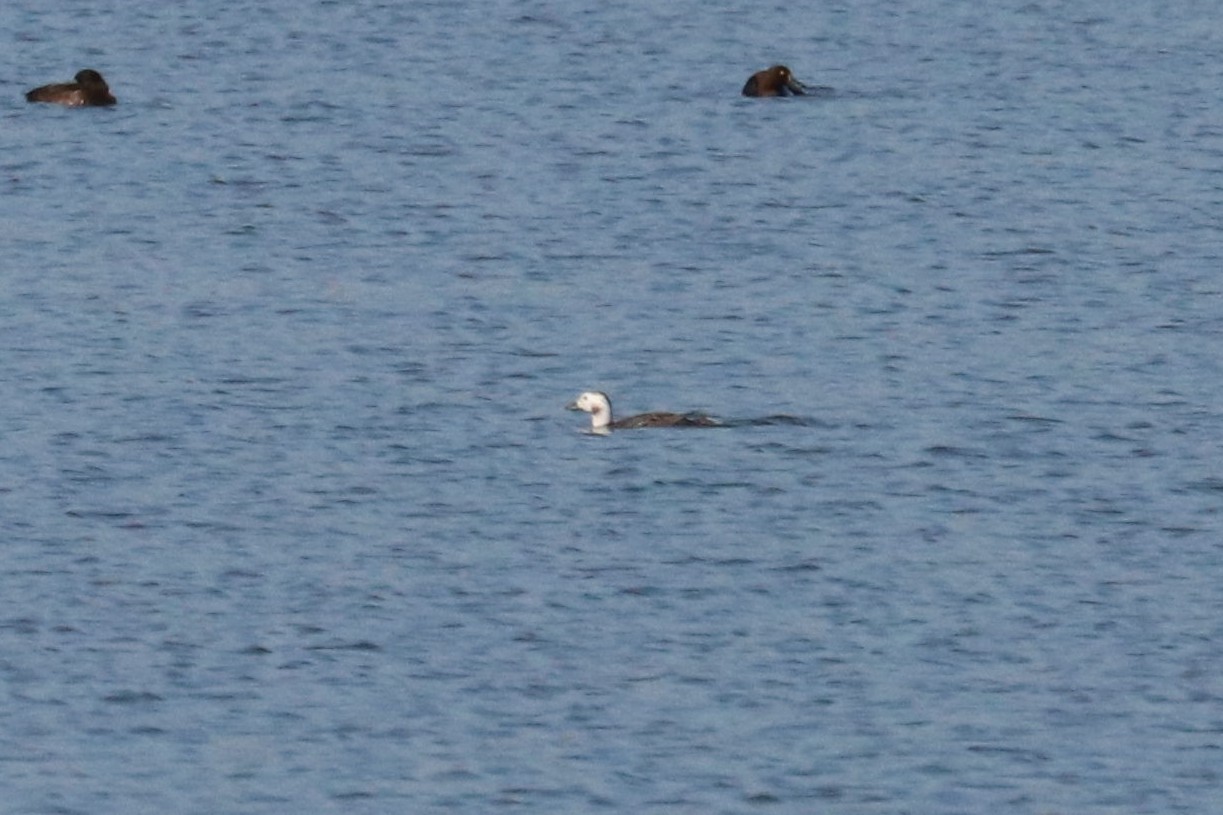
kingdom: Animalia
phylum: Chordata
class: Aves
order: Anseriformes
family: Anatidae
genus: Clangula
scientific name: Clangula hyemalis
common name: Long-tailed duck
